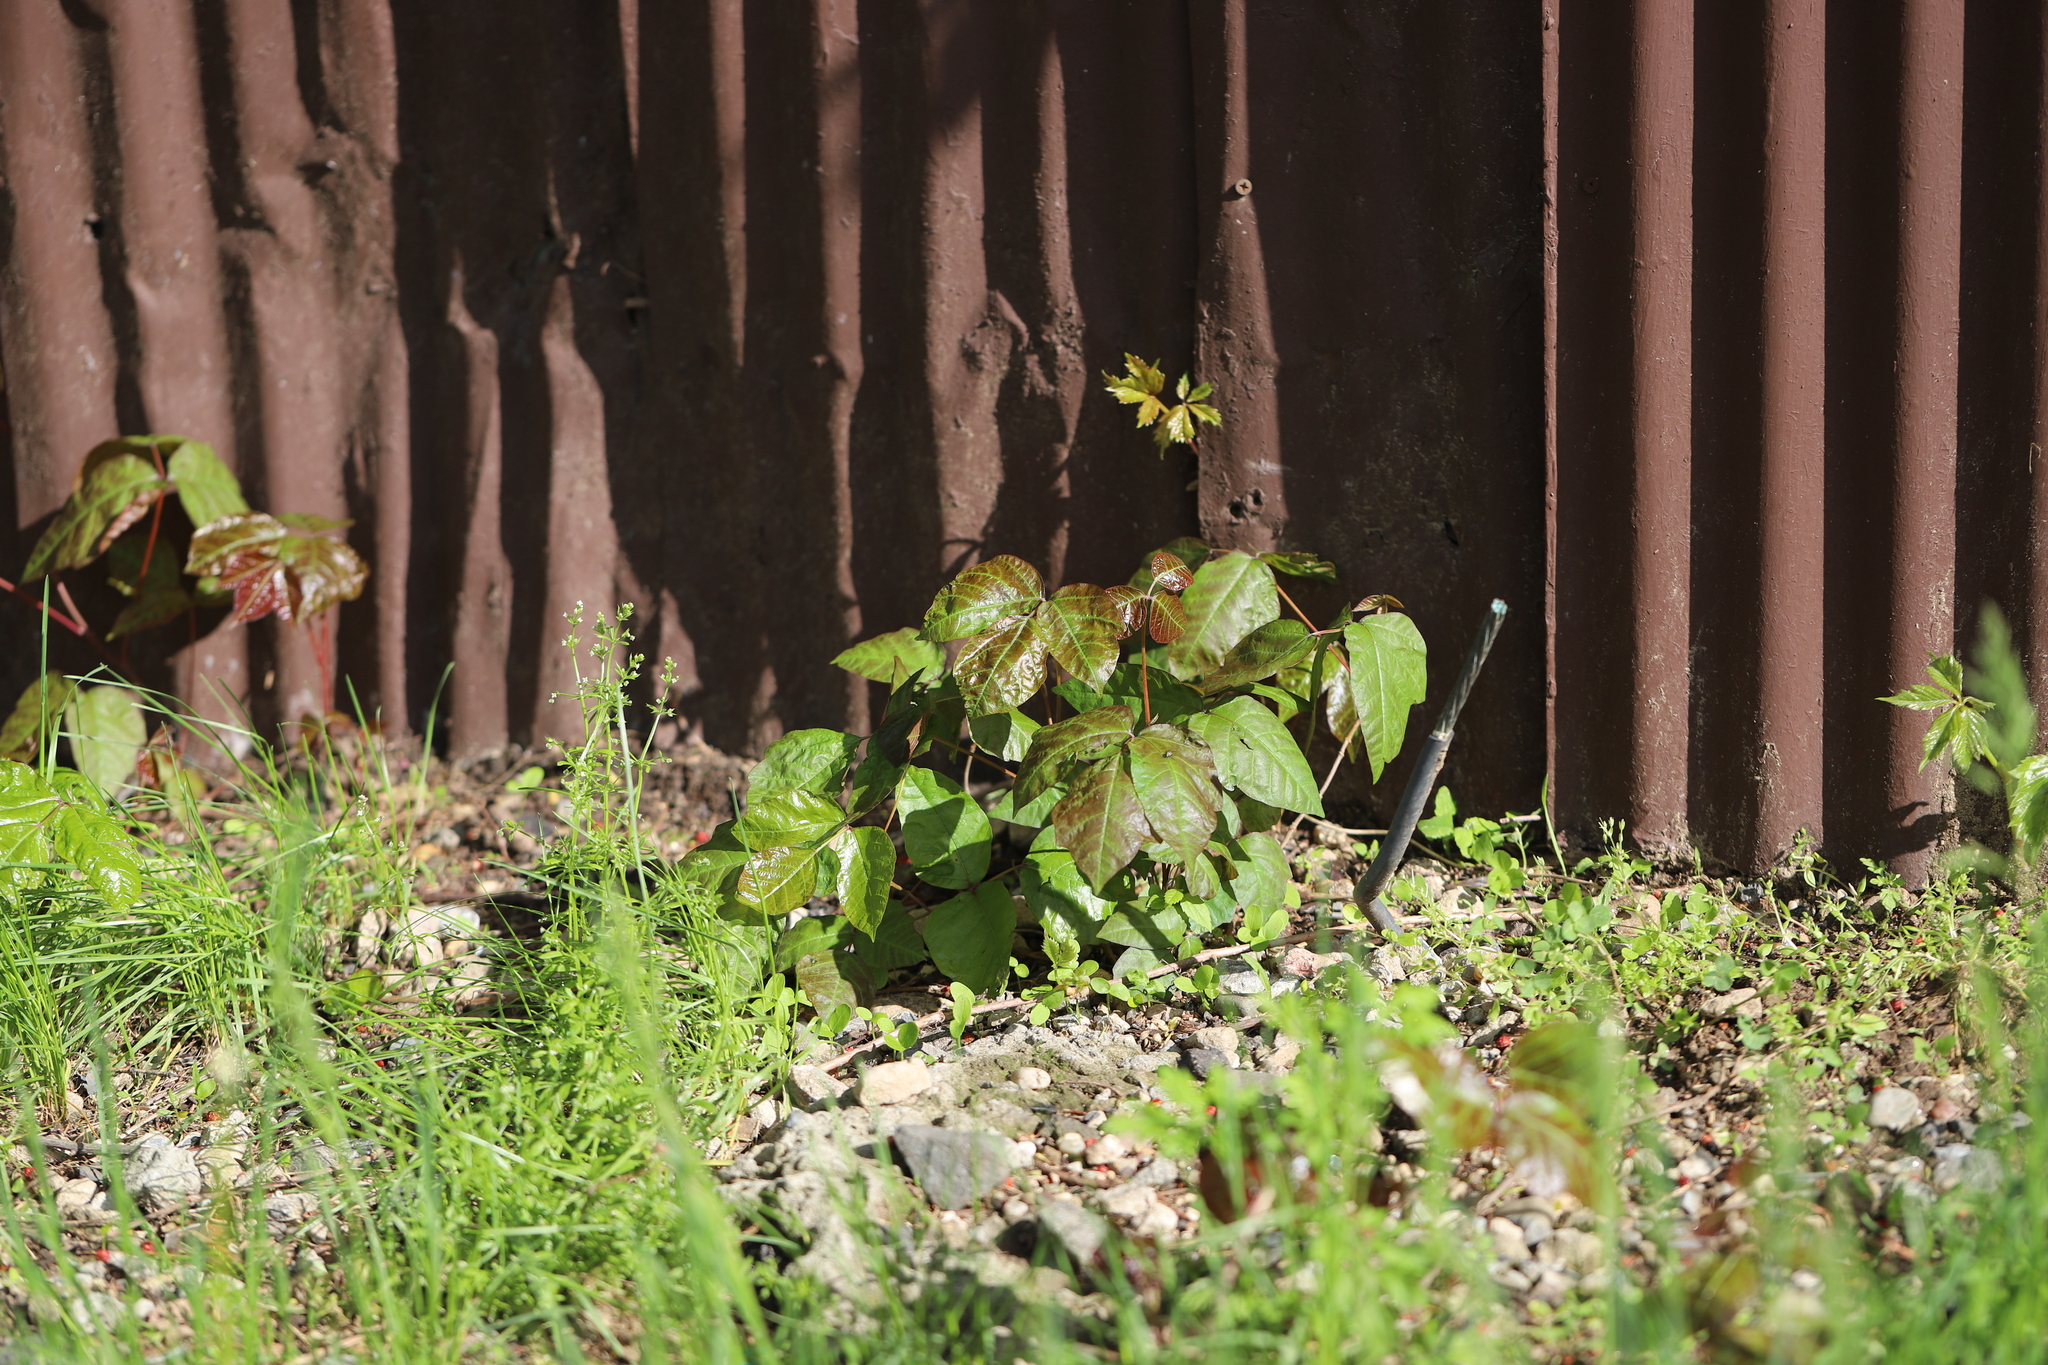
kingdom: Plantae
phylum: Tracheophyta
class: Magnoliopsida
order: Sapindales
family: Anacardiaceae
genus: Toxicodendron
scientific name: Toxicodendron radicans
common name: Poison ivy
